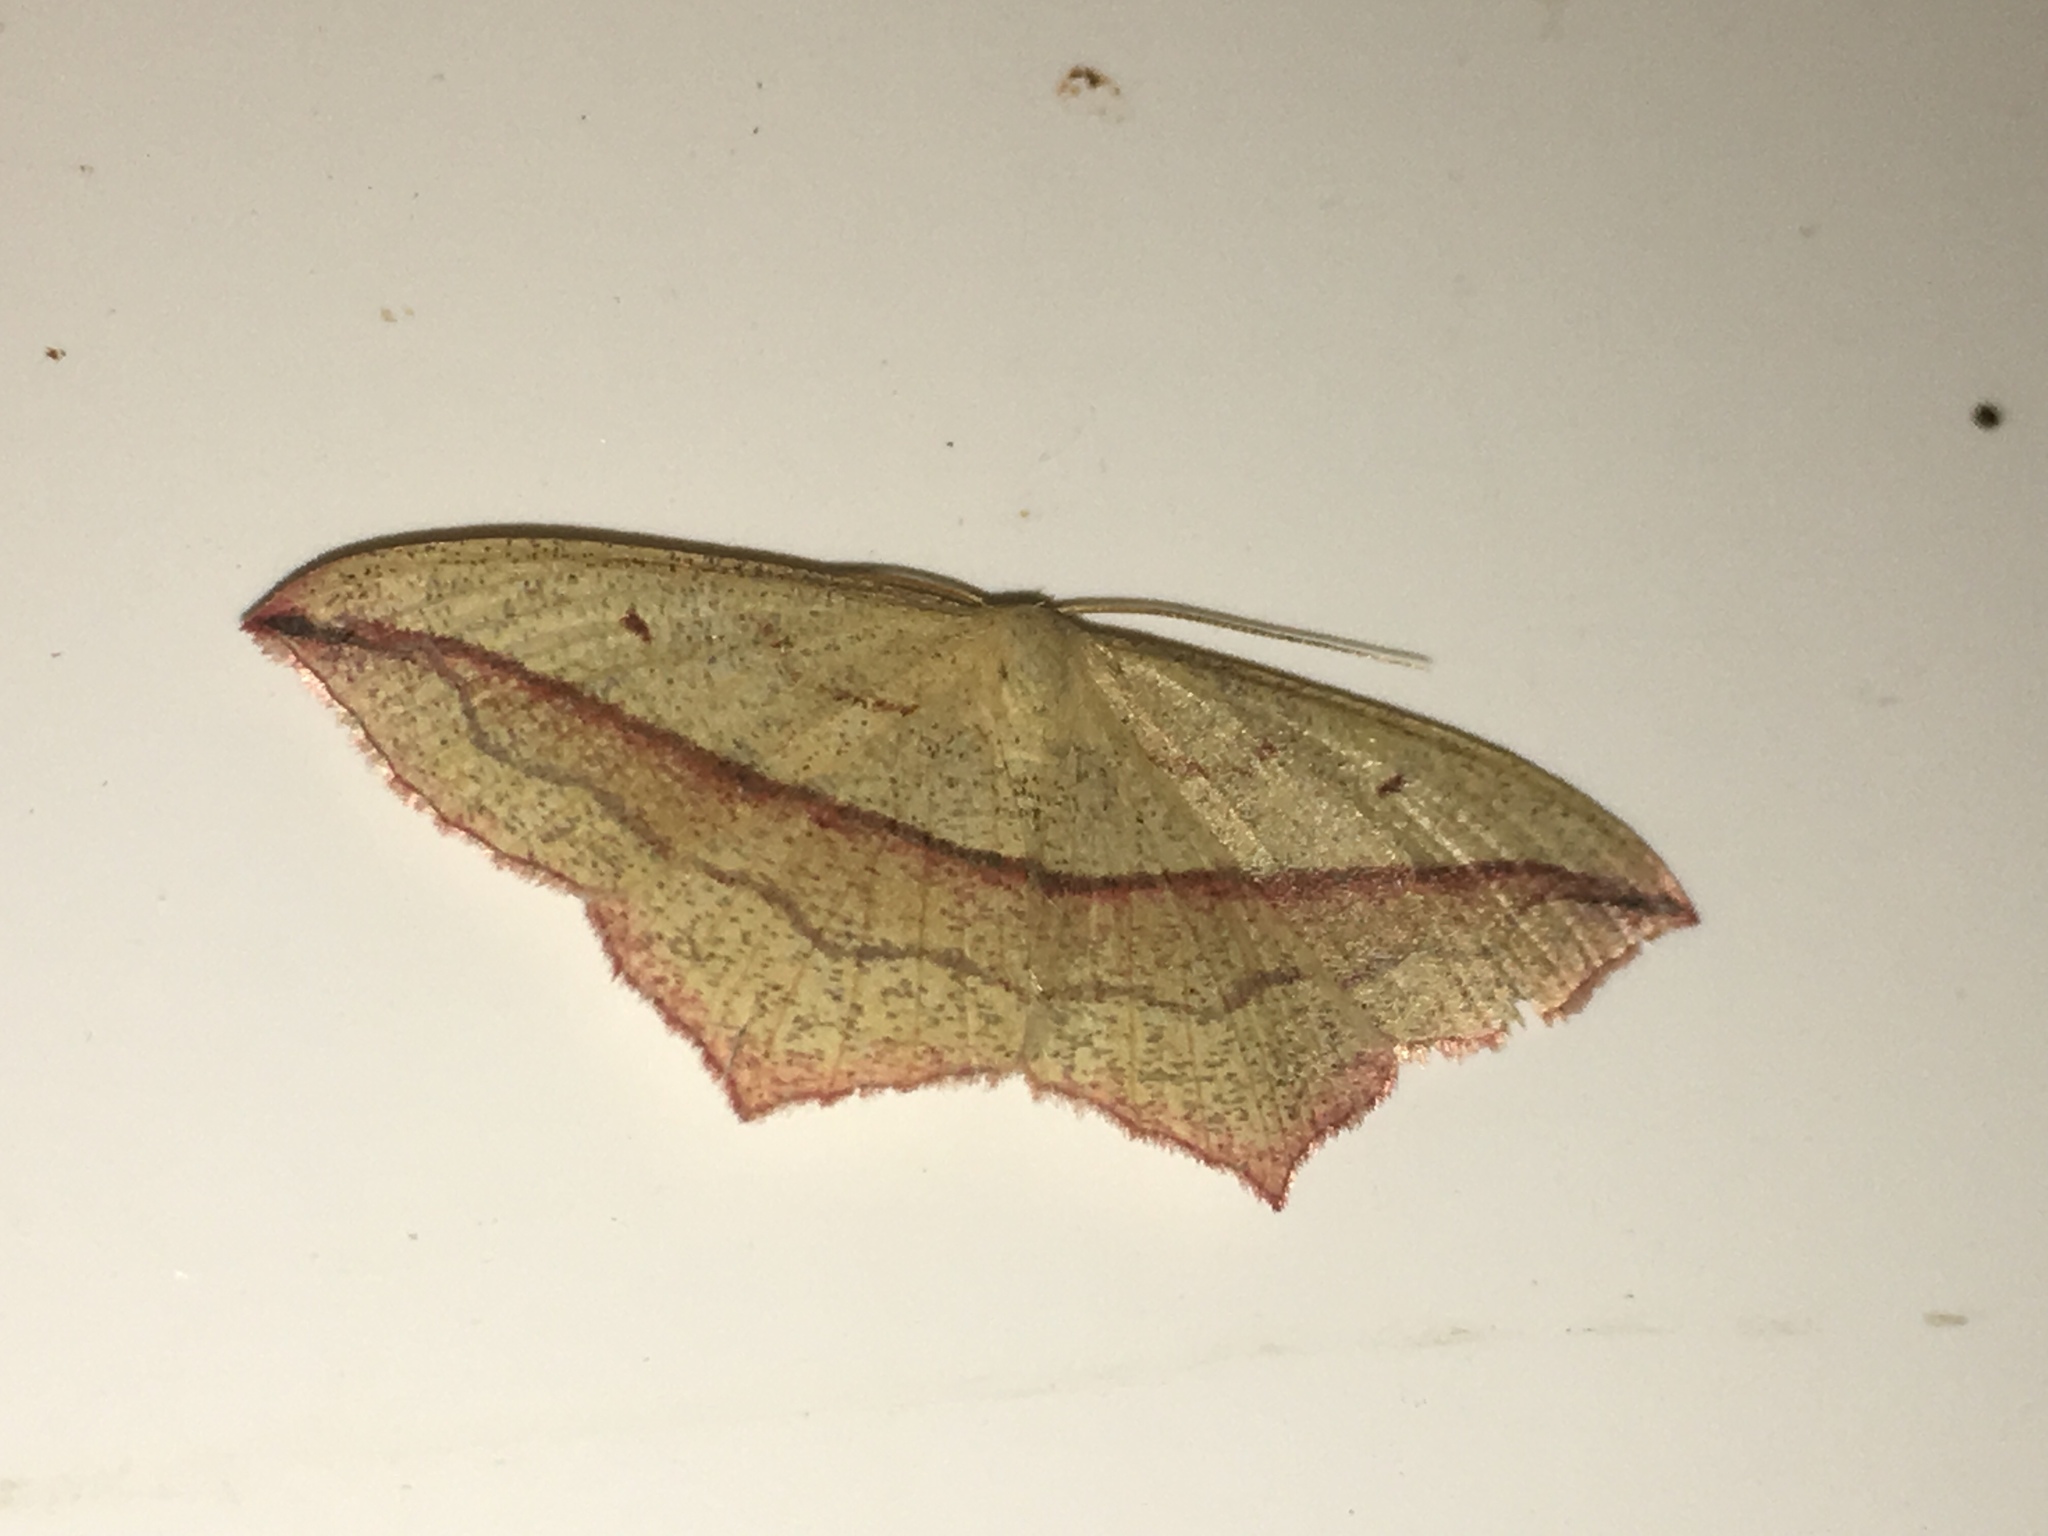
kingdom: Animalia
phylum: Arthropoda
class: Insecta
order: Lepidoptera
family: Geometridae
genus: Timandra
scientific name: Timandra comae
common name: Blood-vein
